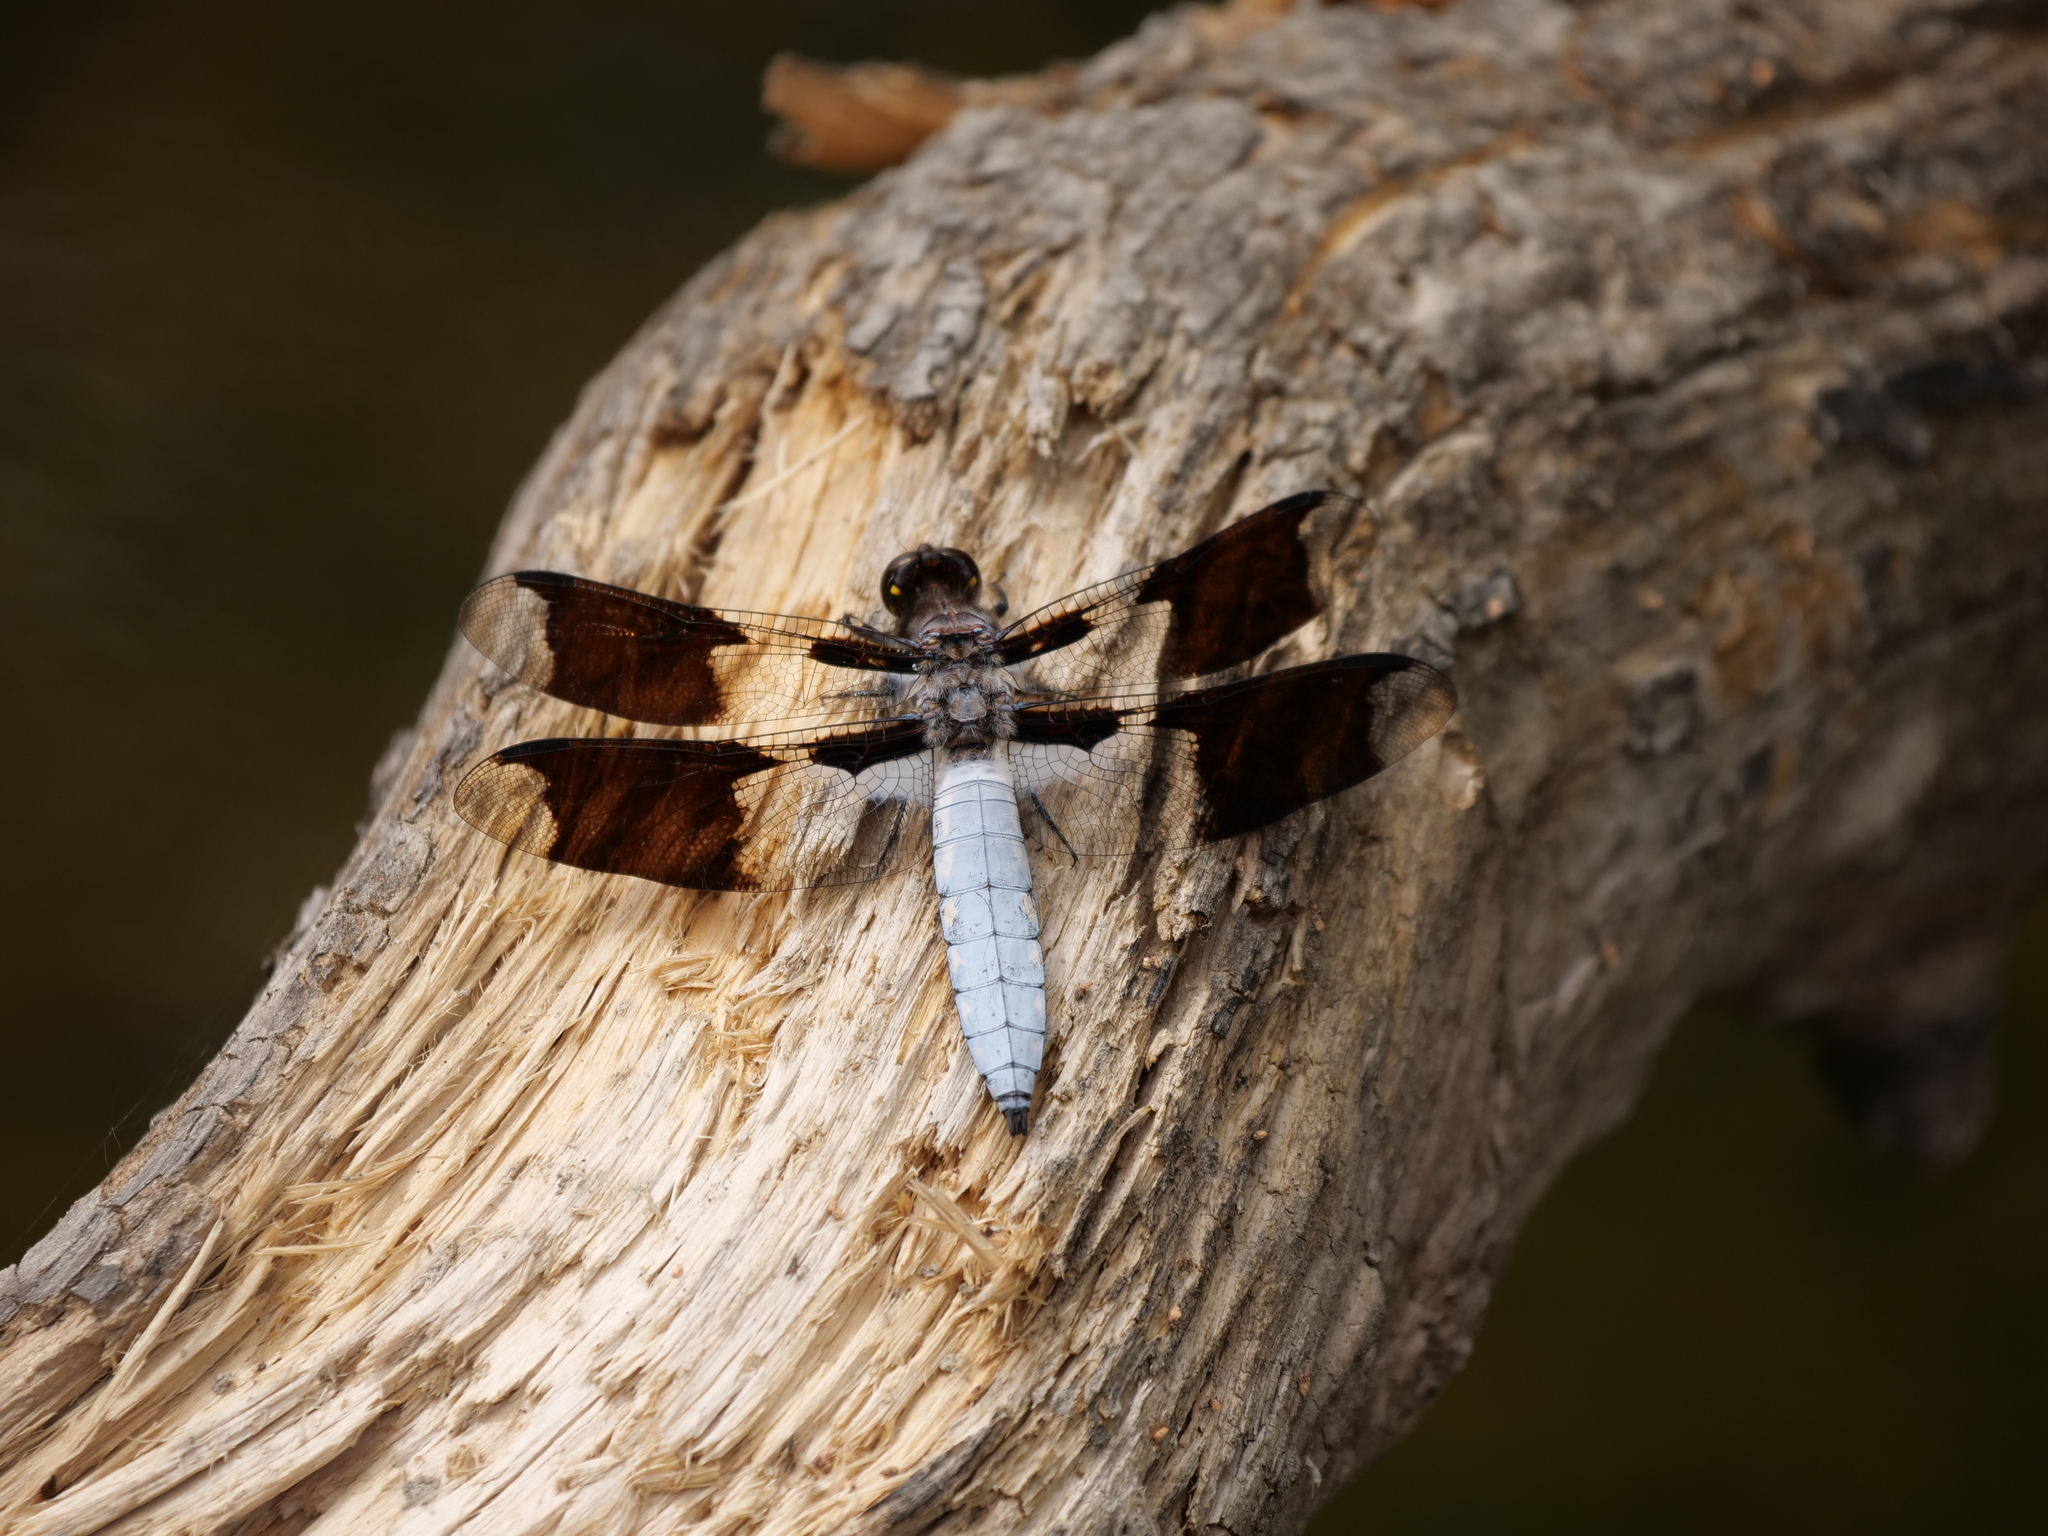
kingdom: Animalia
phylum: Arthropoda
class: Insecta
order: Odonata
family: Libellulidae
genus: Plathemis
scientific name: Plathemis lydia
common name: Common whitetail
